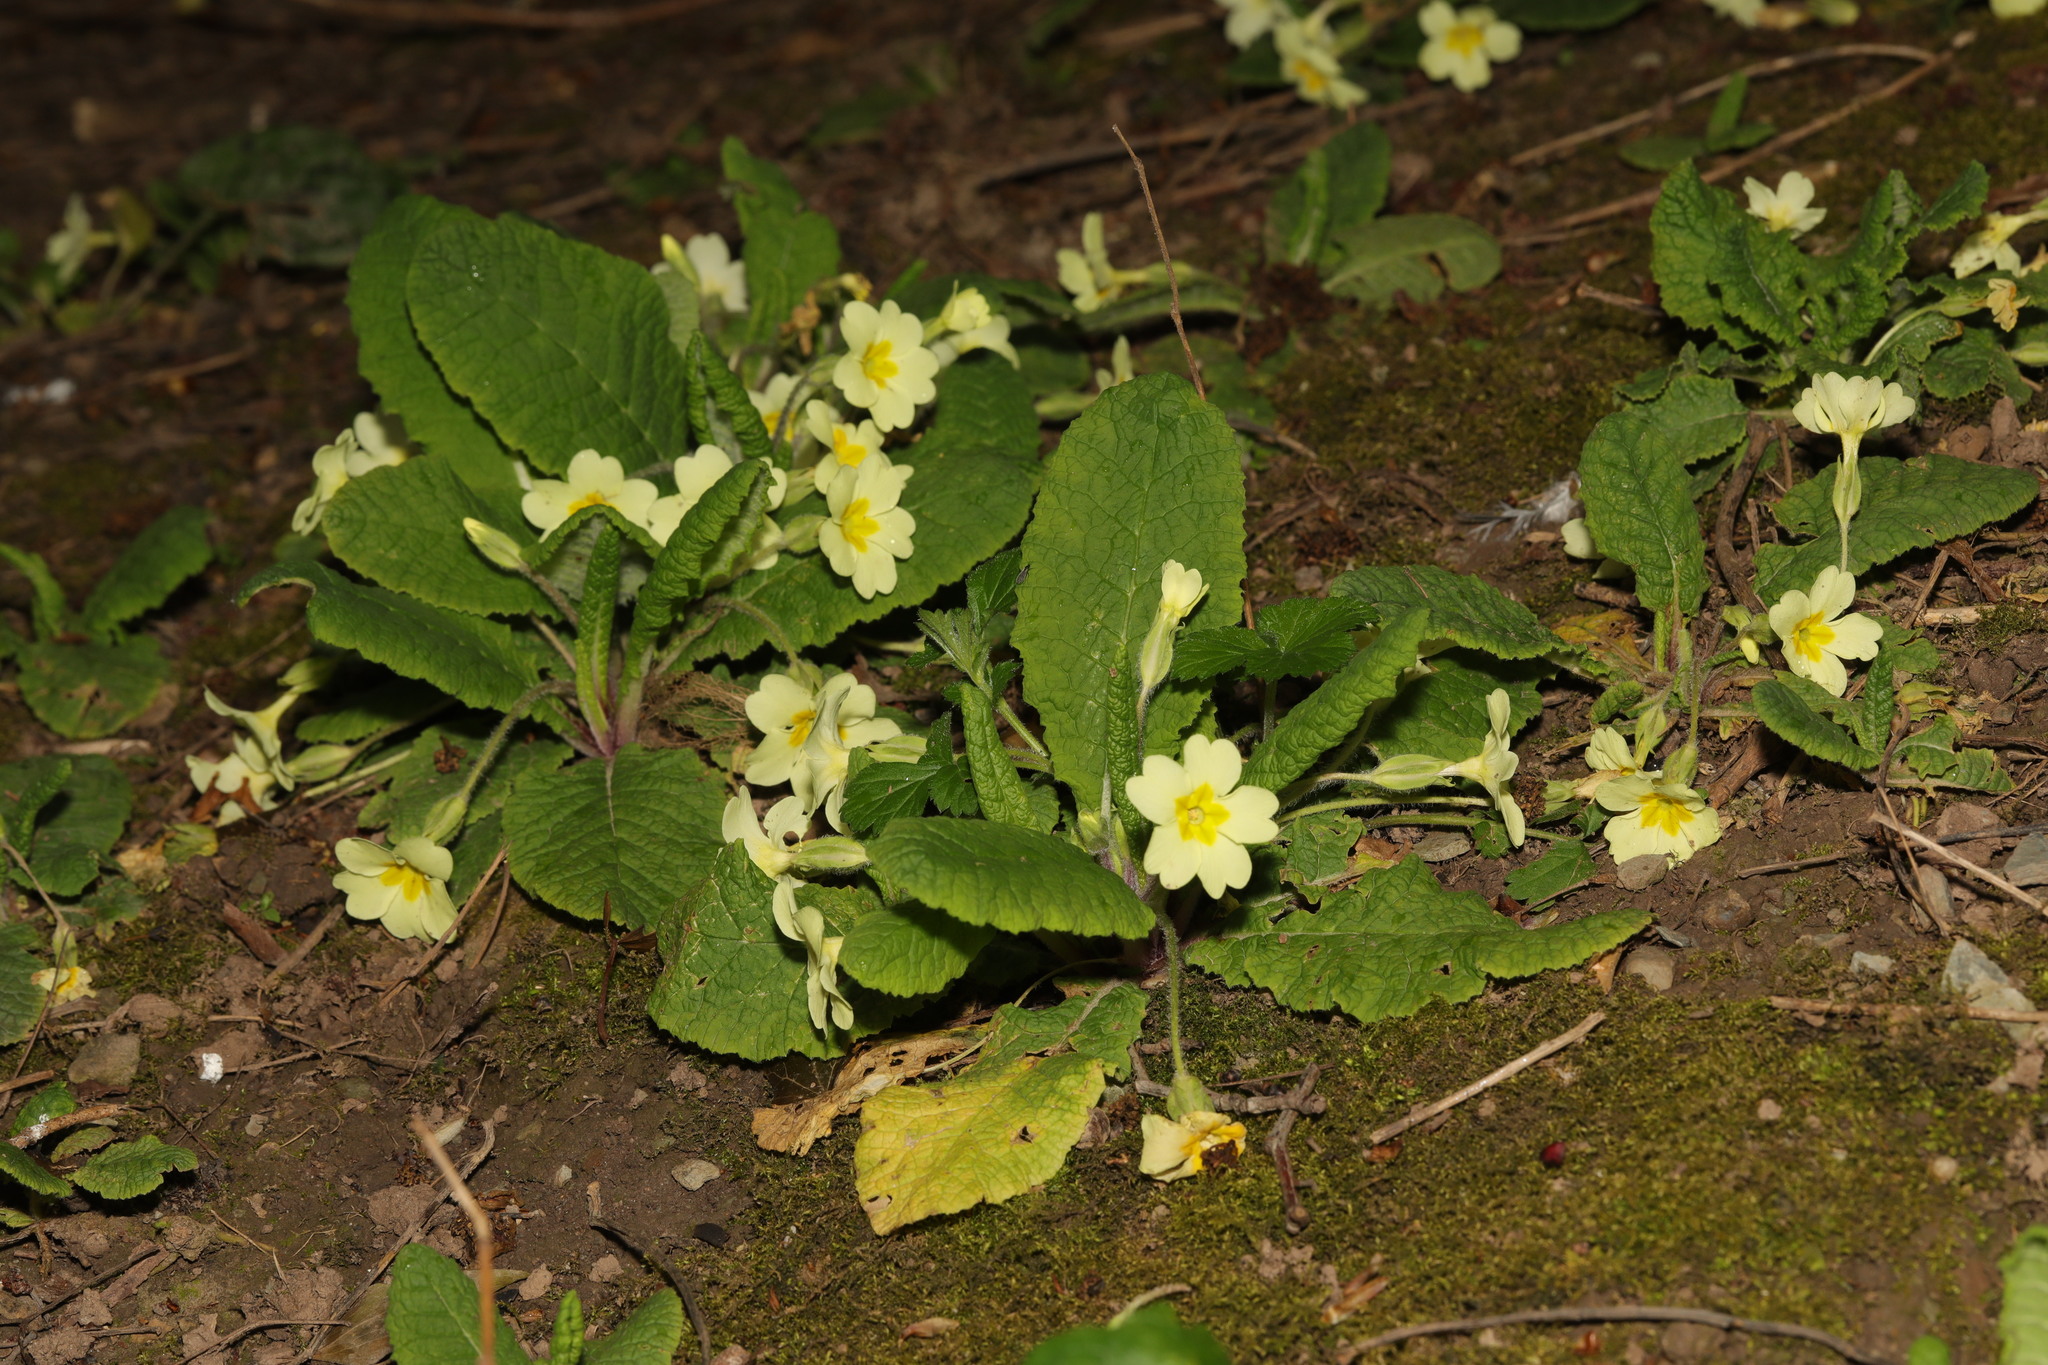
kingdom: Plantae
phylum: Tracheophyta
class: Magnoliopsida
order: Ericales
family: Primulaceae
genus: Primula
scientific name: Primula vulgaris
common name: Primrose
